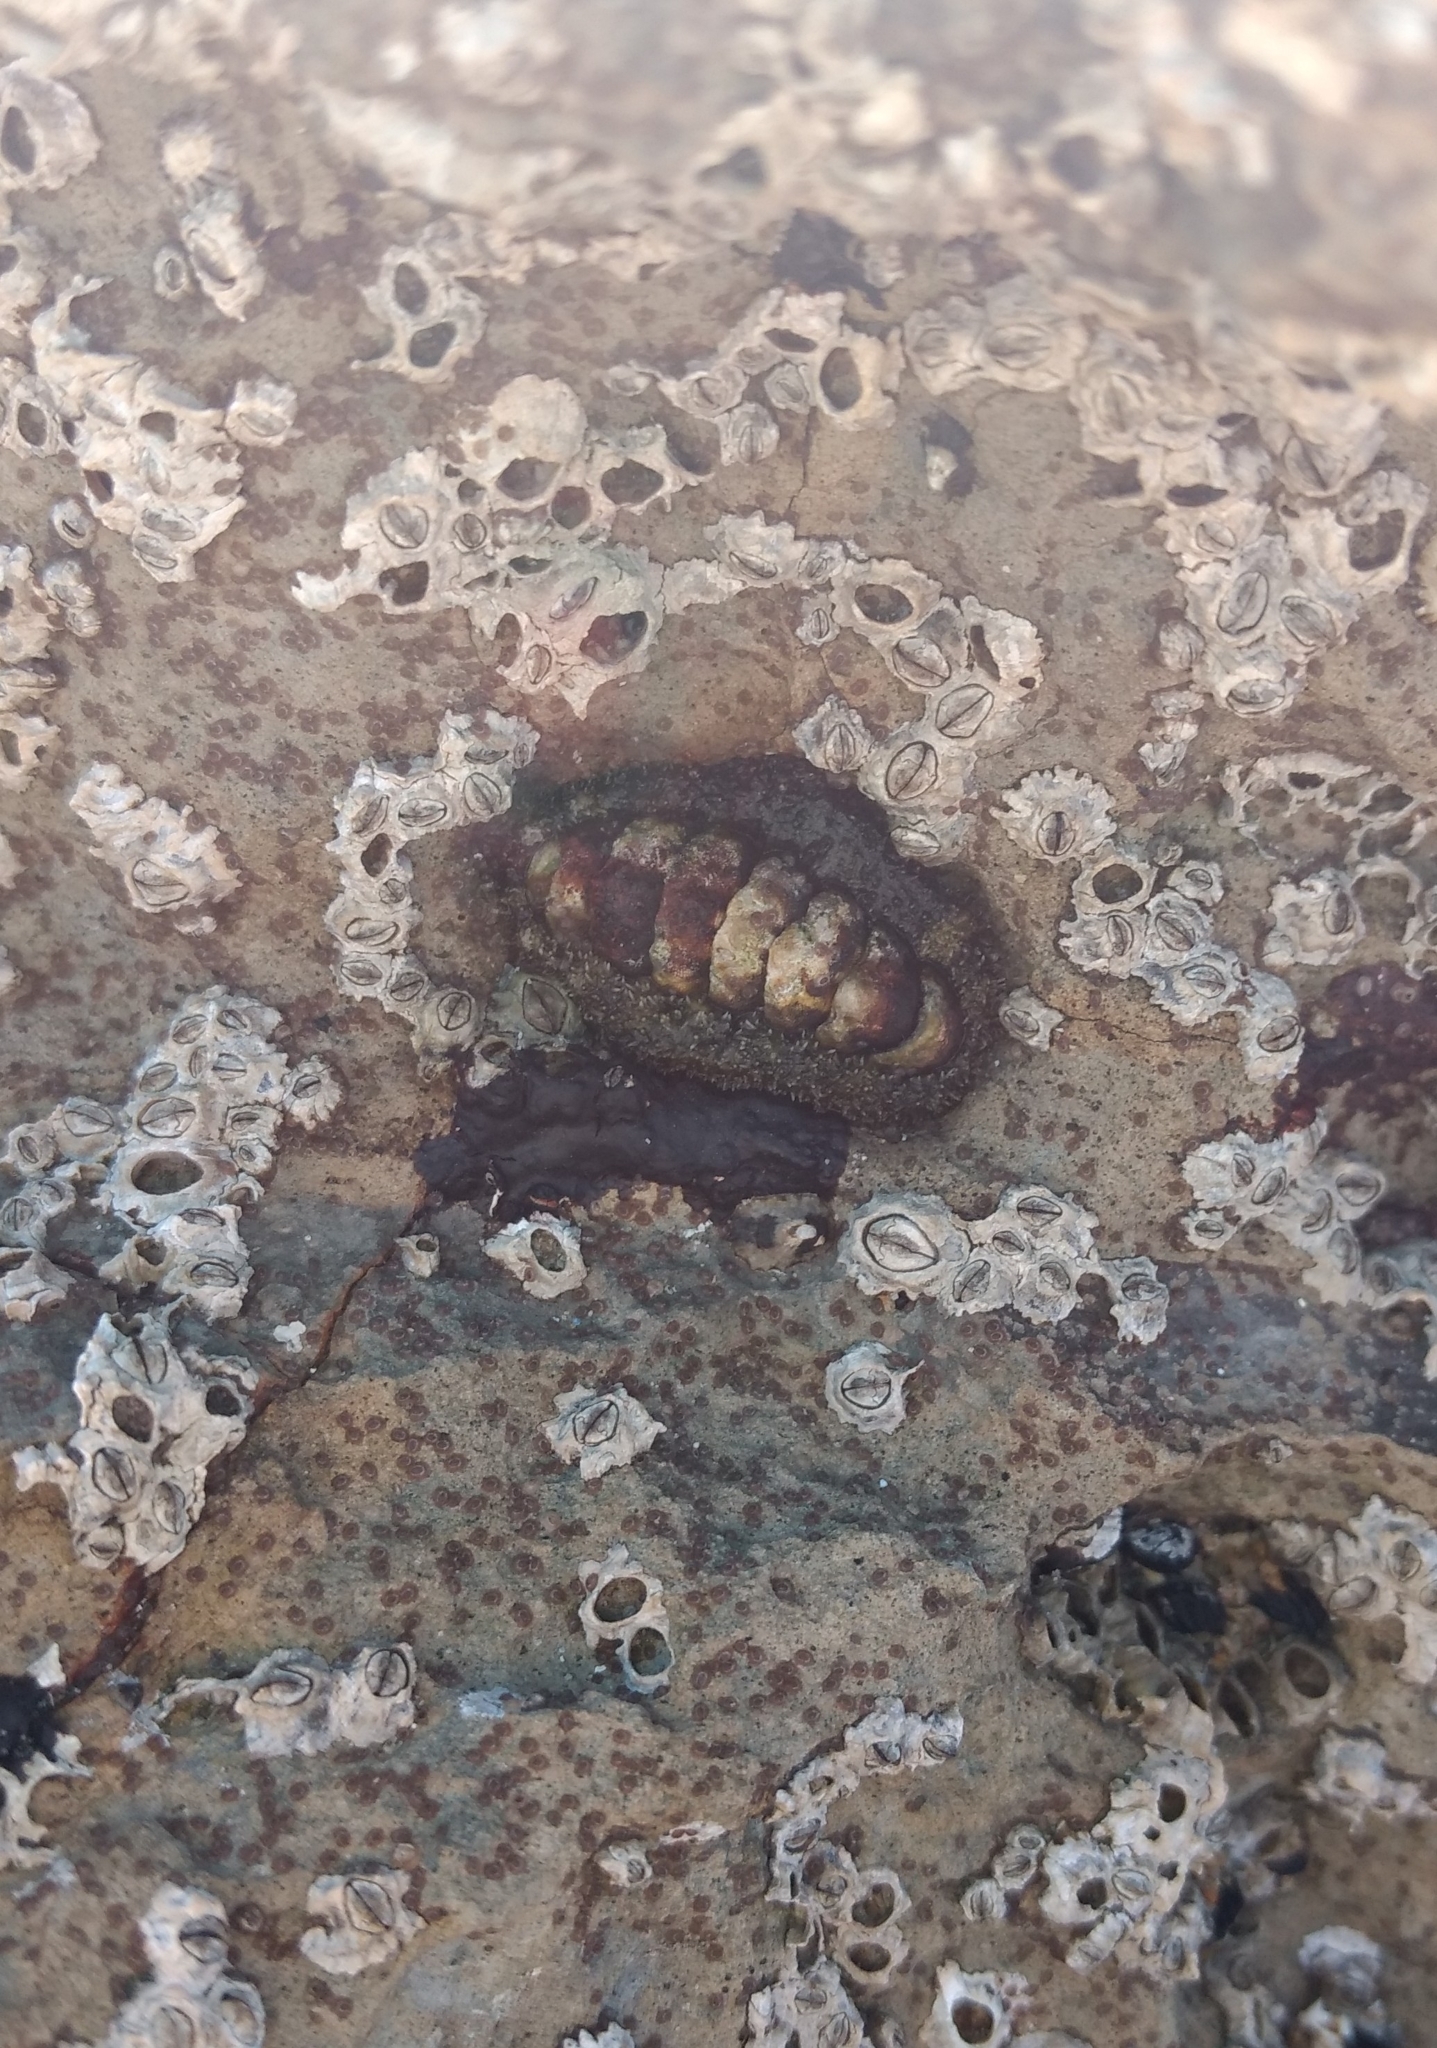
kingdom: Animalia
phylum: Mollusca
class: Polyplacophora
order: Chitonida
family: Tonicellidae
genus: Nuttallina
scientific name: Nuttallina californica
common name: California nuttall chiton
